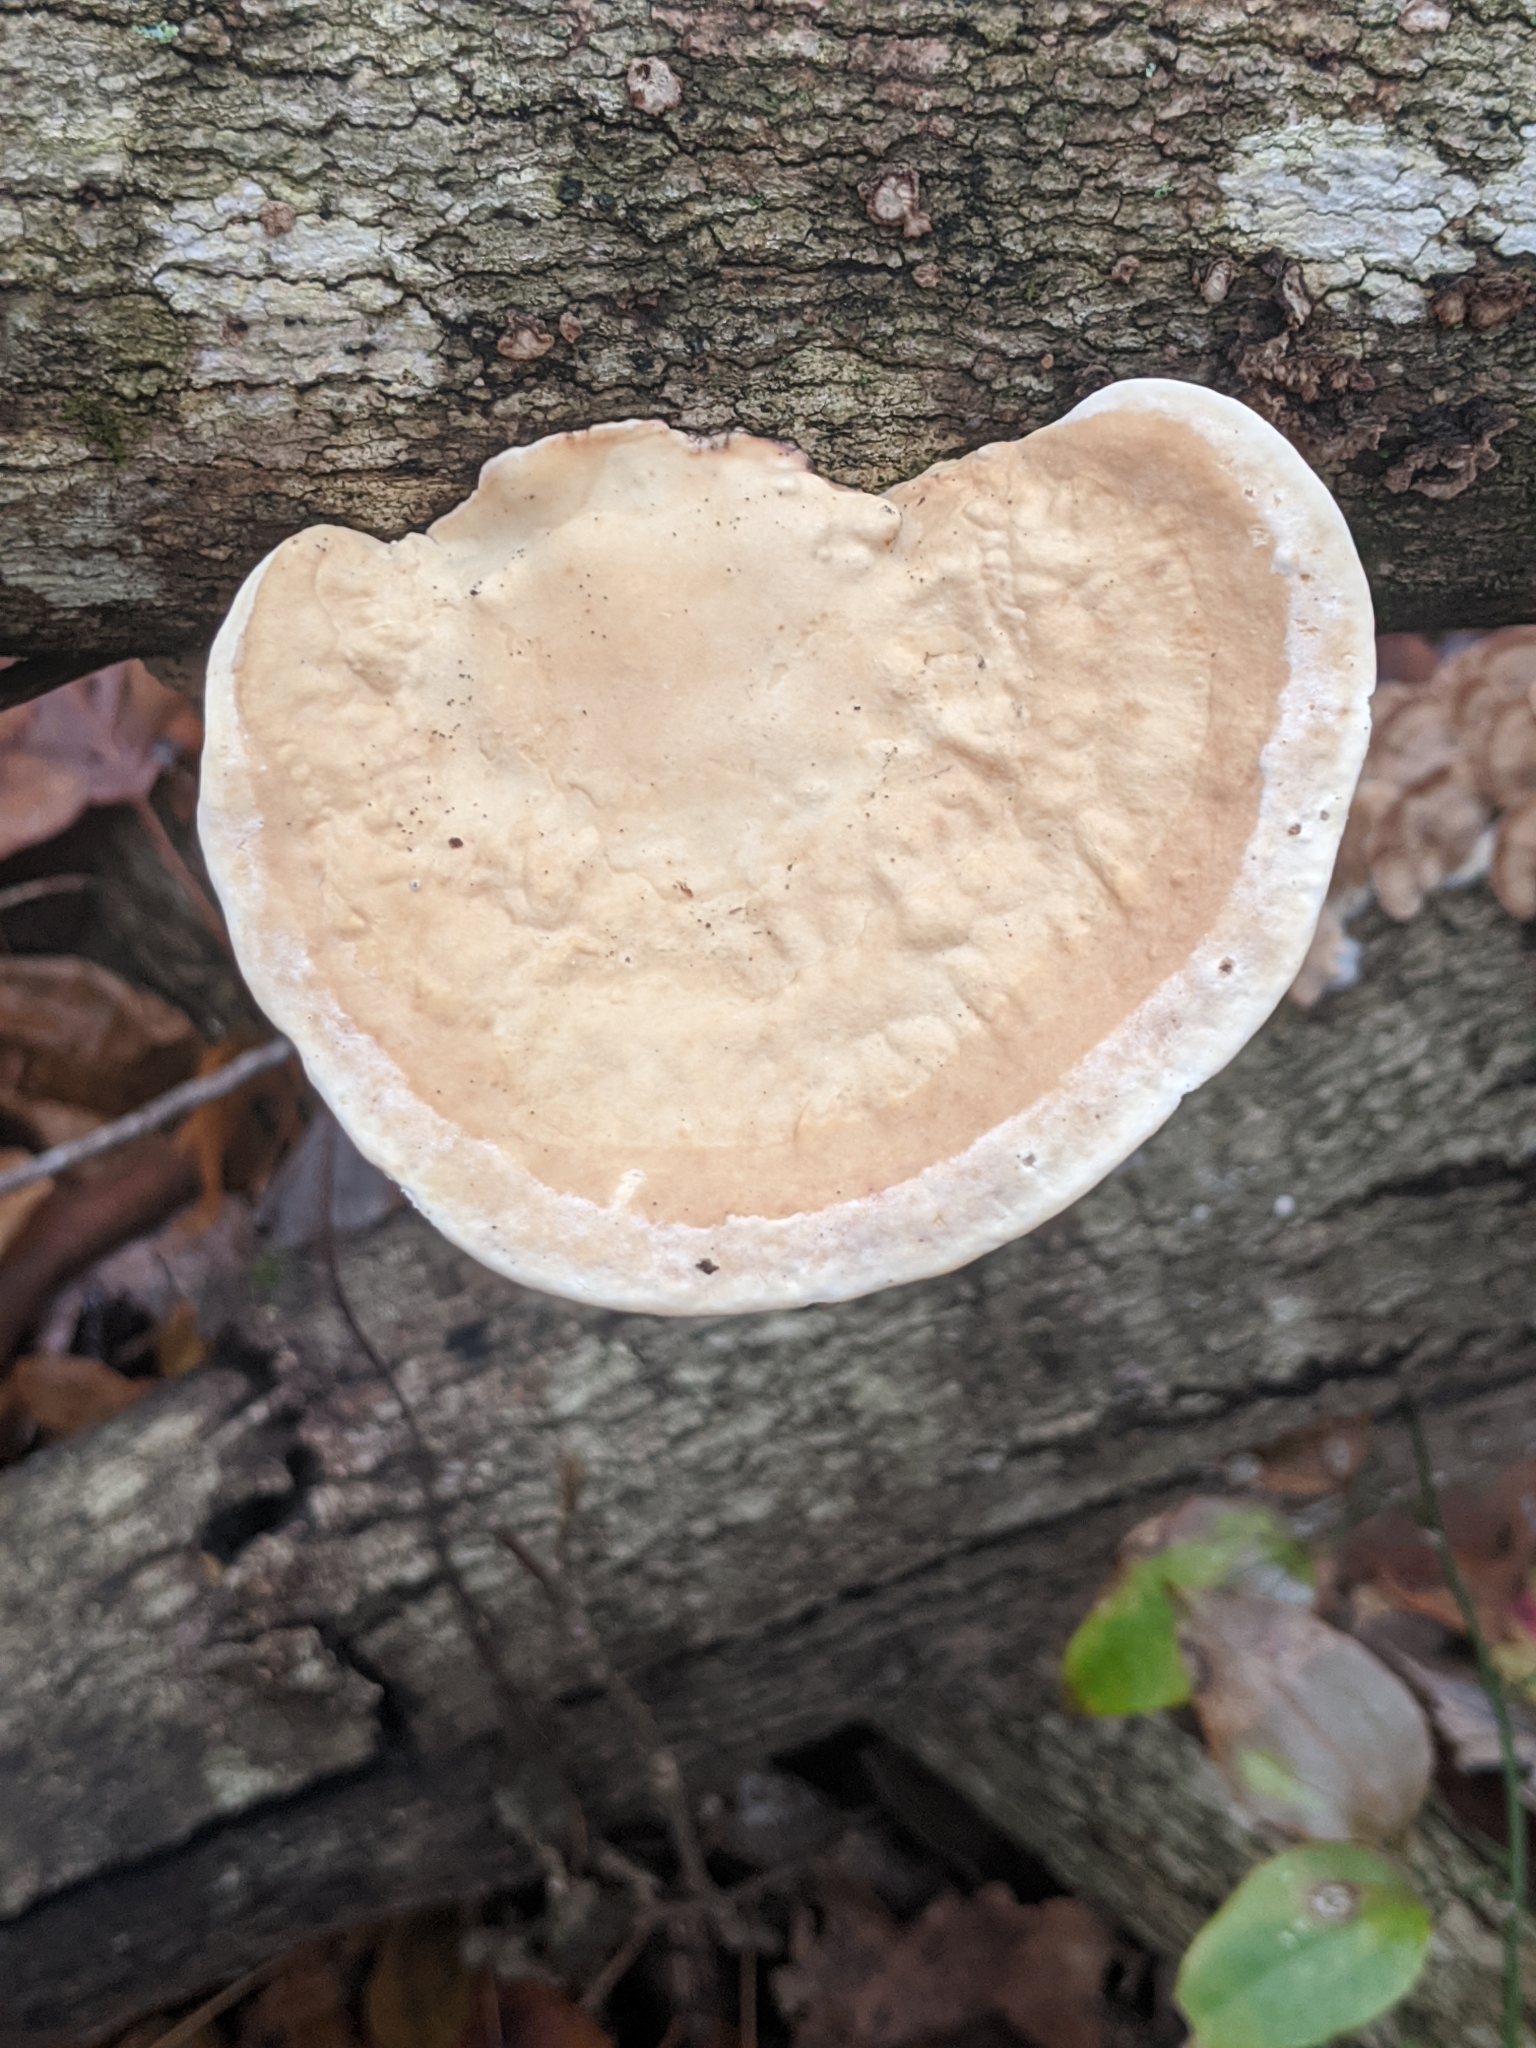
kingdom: Fungi
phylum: Basidiomycota
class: Agaricomycetes
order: Polyporales
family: Polyporaceae
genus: Trametes
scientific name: Trametes
